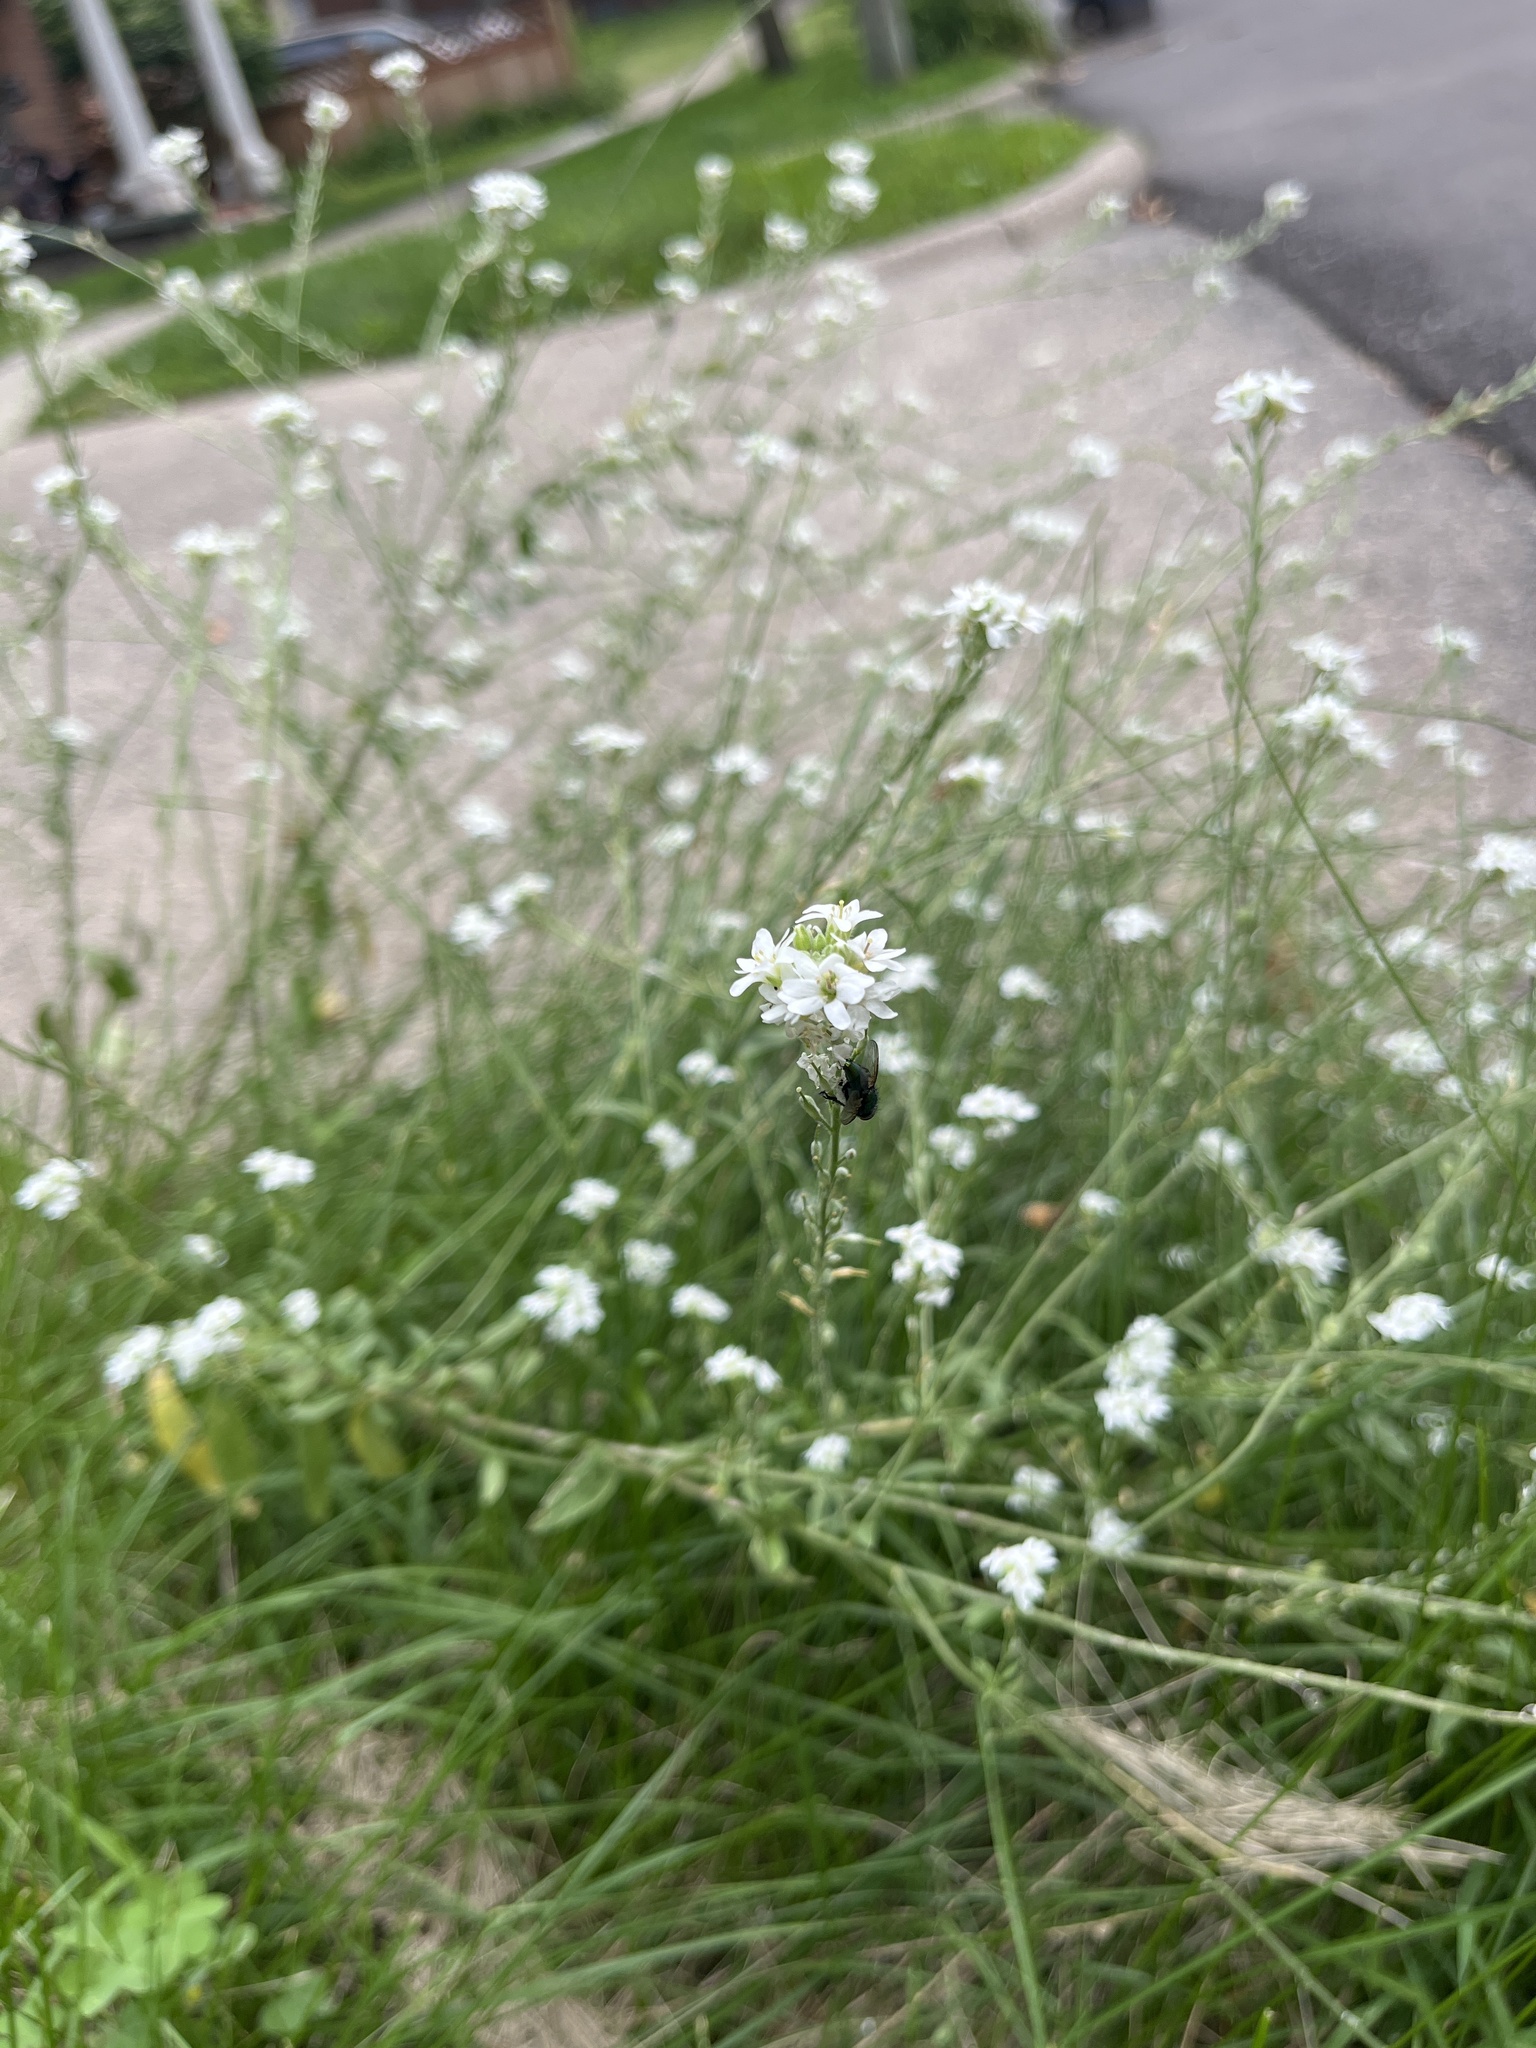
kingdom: Plantae
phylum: Tracheophyta
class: Magnoliopsida
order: Brassicales
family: Brassicaceae
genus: Berteroa
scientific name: Berteroa incana
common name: Hoary alison
